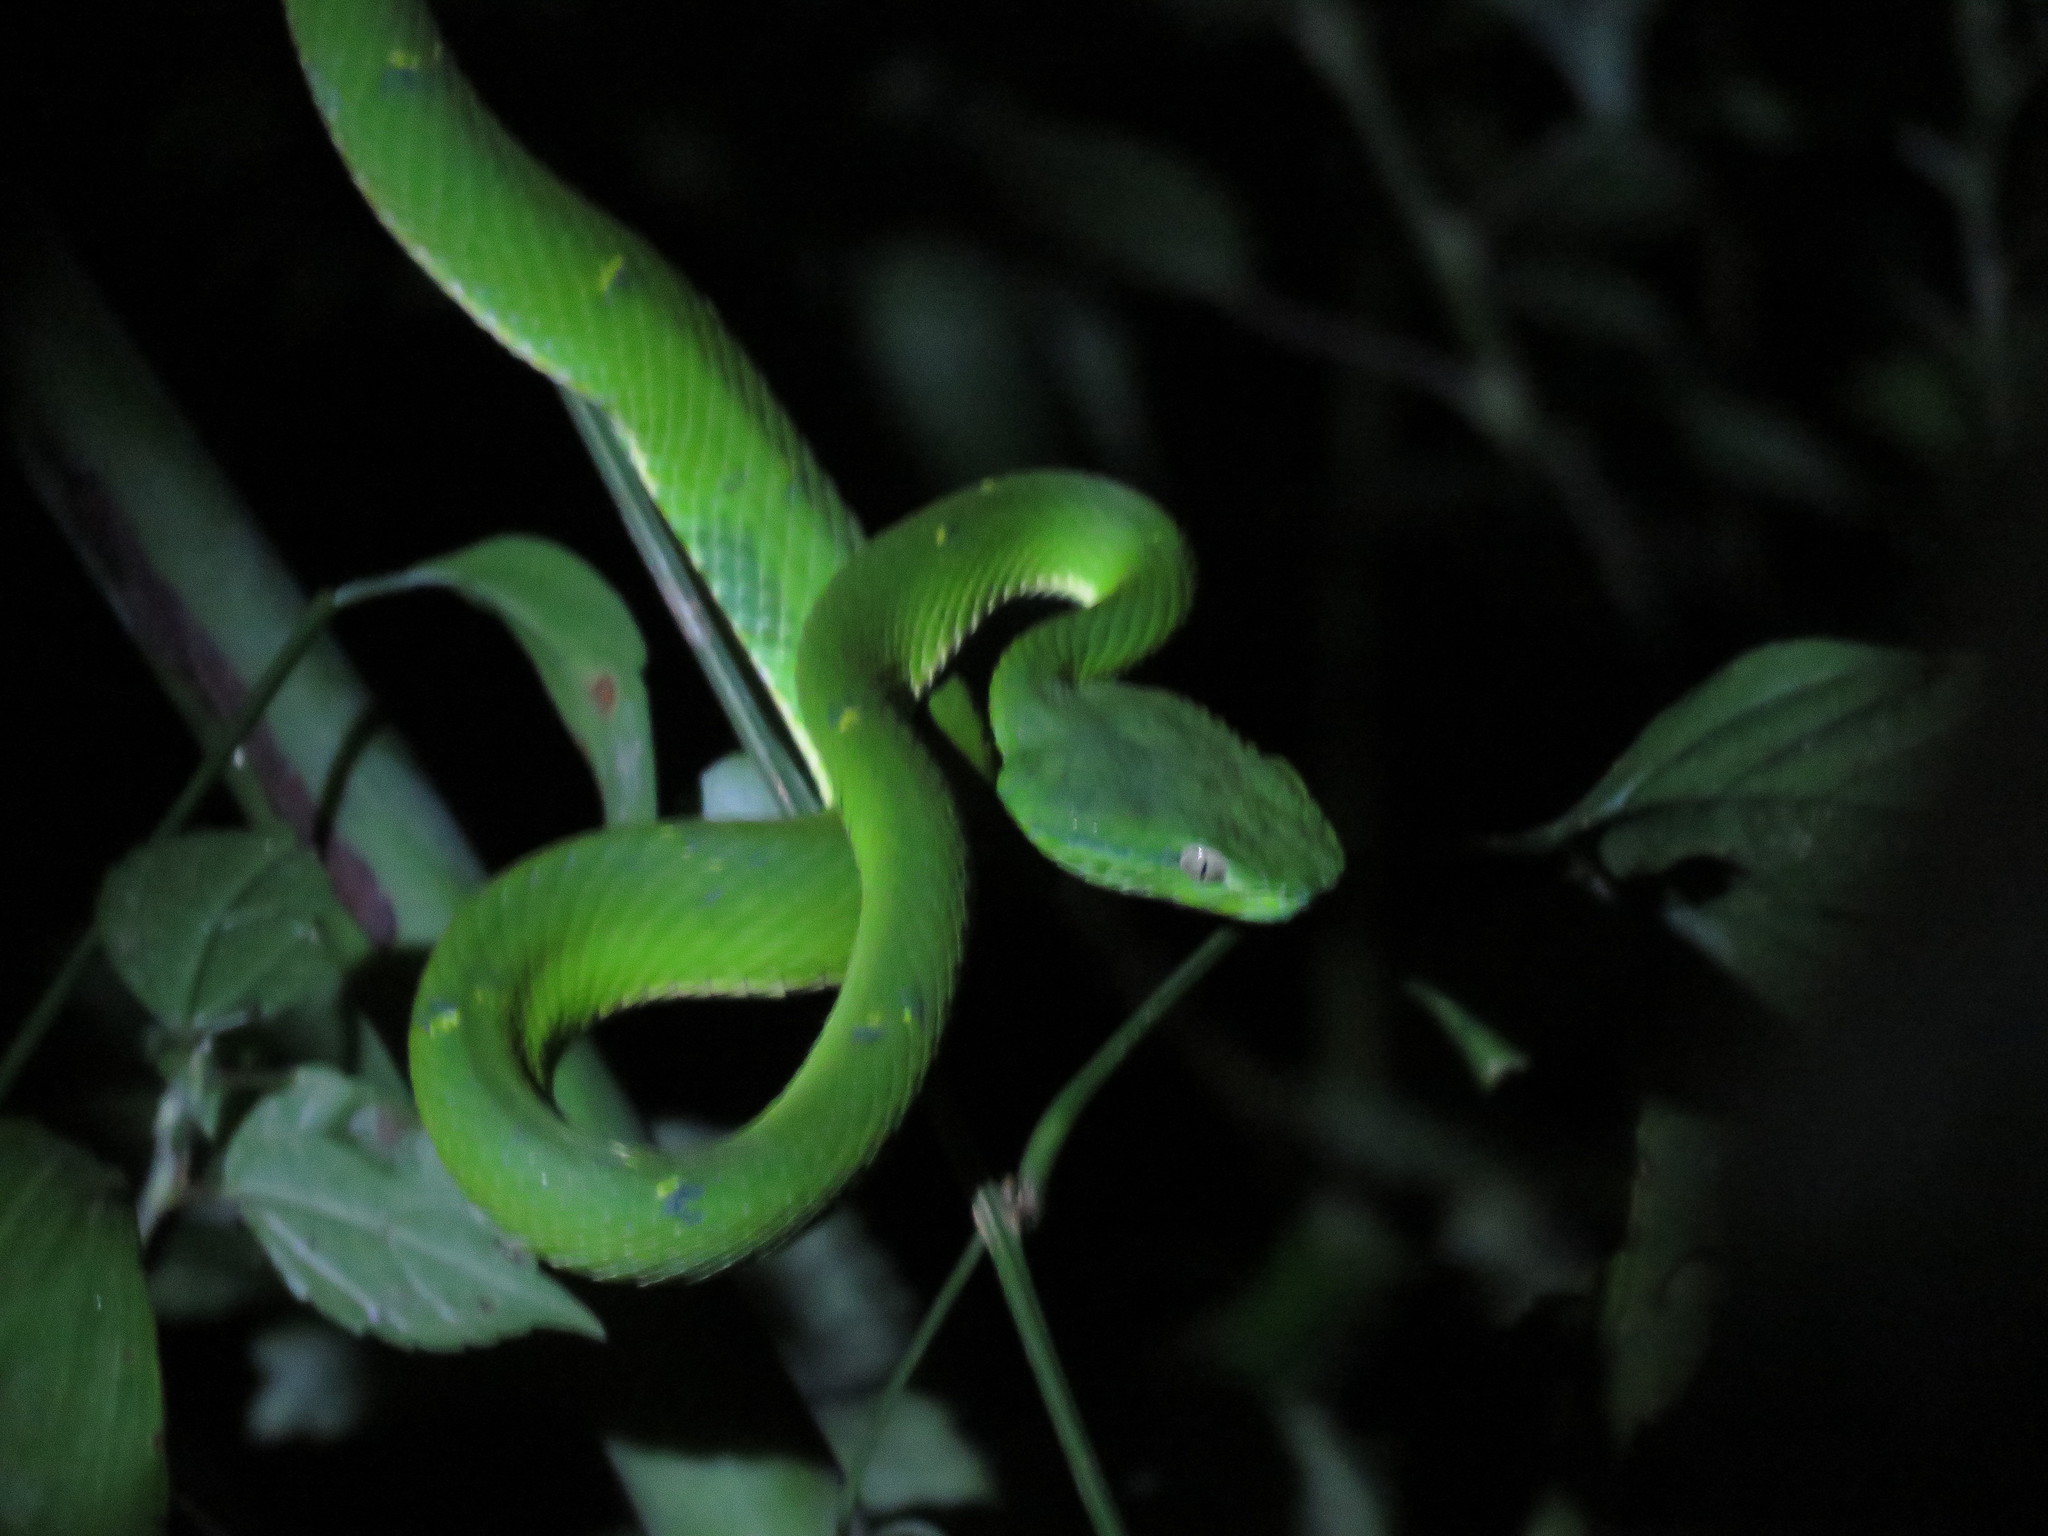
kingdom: Animalia
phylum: Chordata
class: Squamata
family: Viperidae
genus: Bothriechis
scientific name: Bothriechis lateralis
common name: Coffee palm viper
